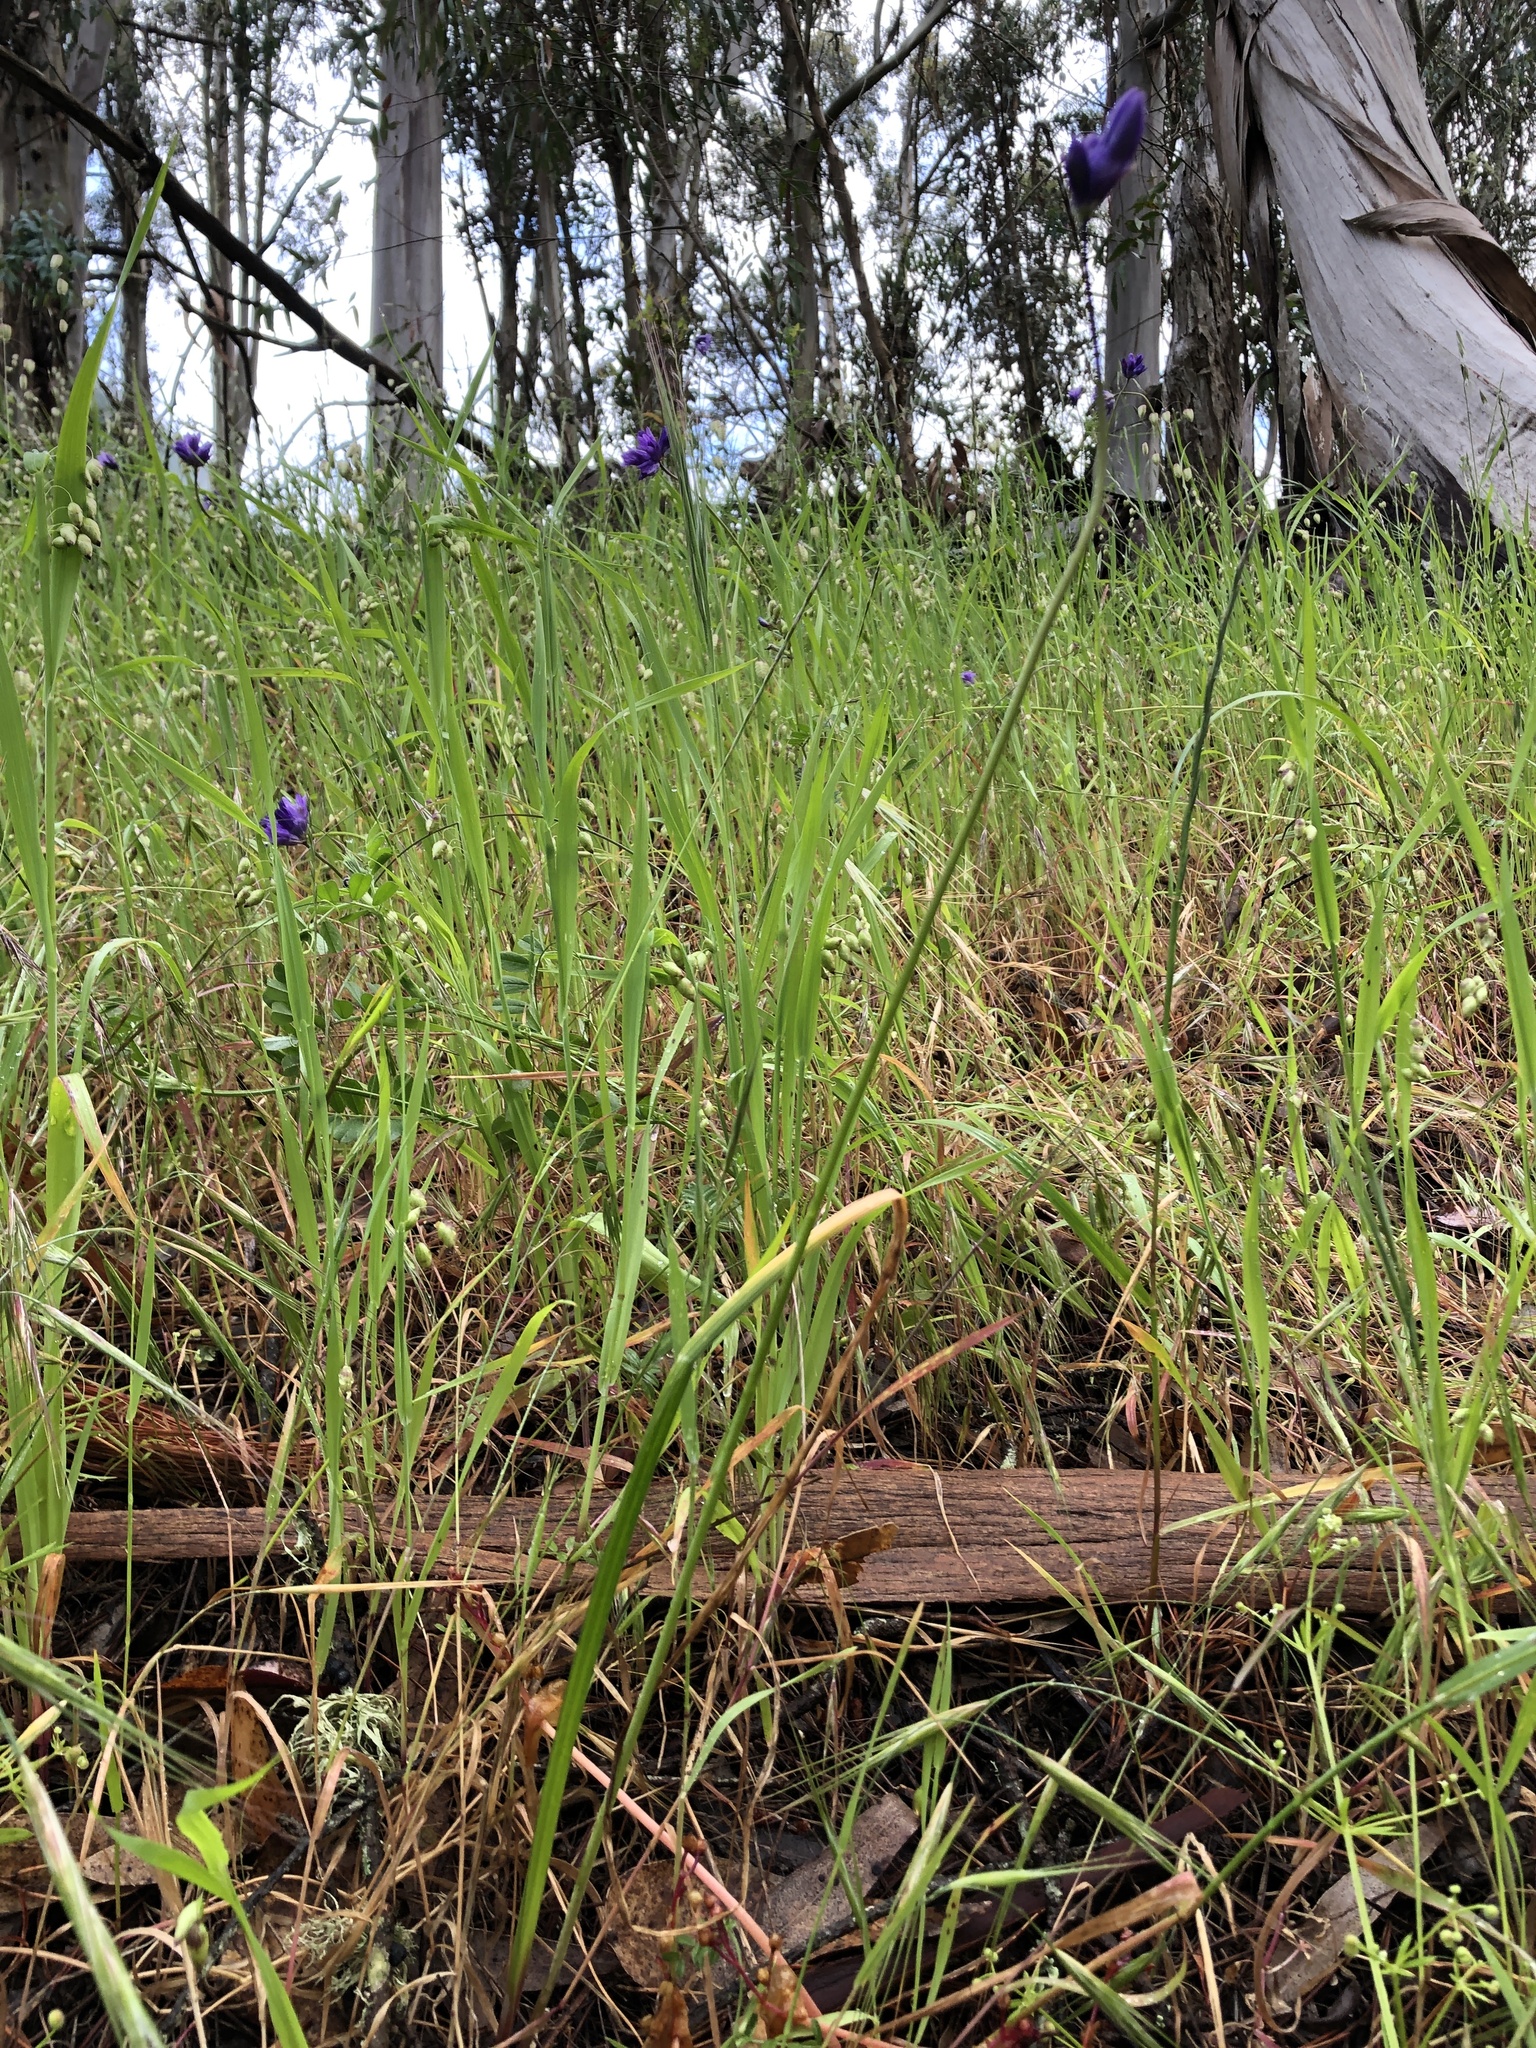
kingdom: Plantae
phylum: Tracheophyta
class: Liliopsida
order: Asparagales
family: Asparagaceae
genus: Dipterostemon
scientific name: Dipterostemon capitatus
